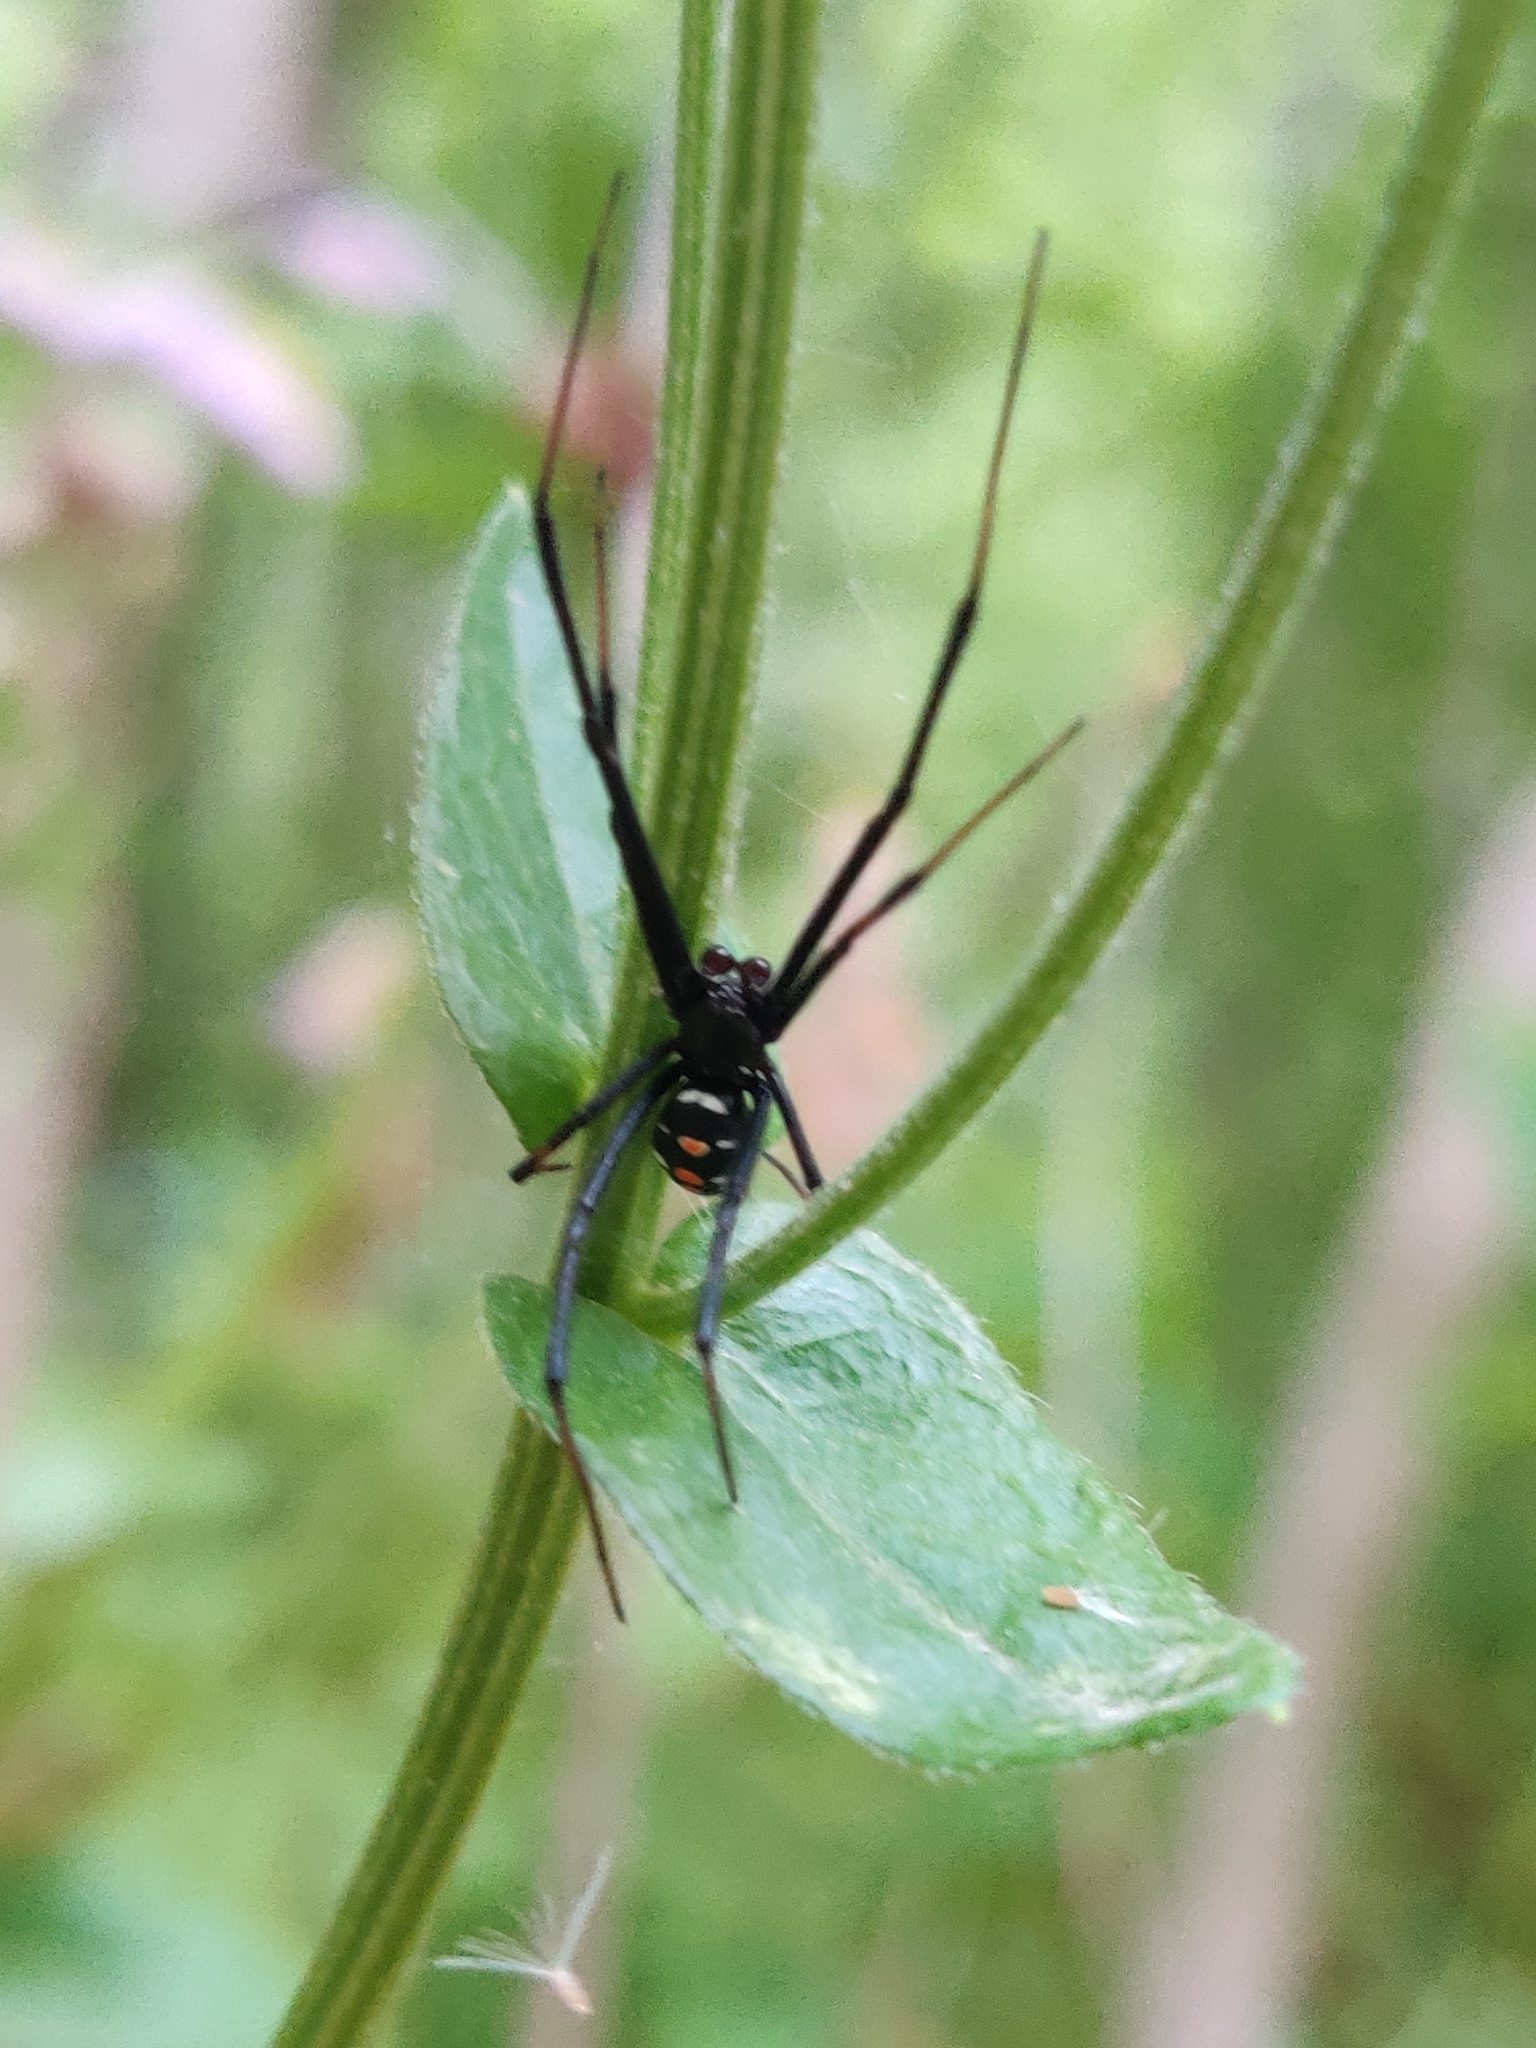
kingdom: Animalia
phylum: Arthropoda
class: Arachnida
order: Araneae
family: Theridiidae
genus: Latrodectus
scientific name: Latrodectus variolus
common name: Northern black widow
